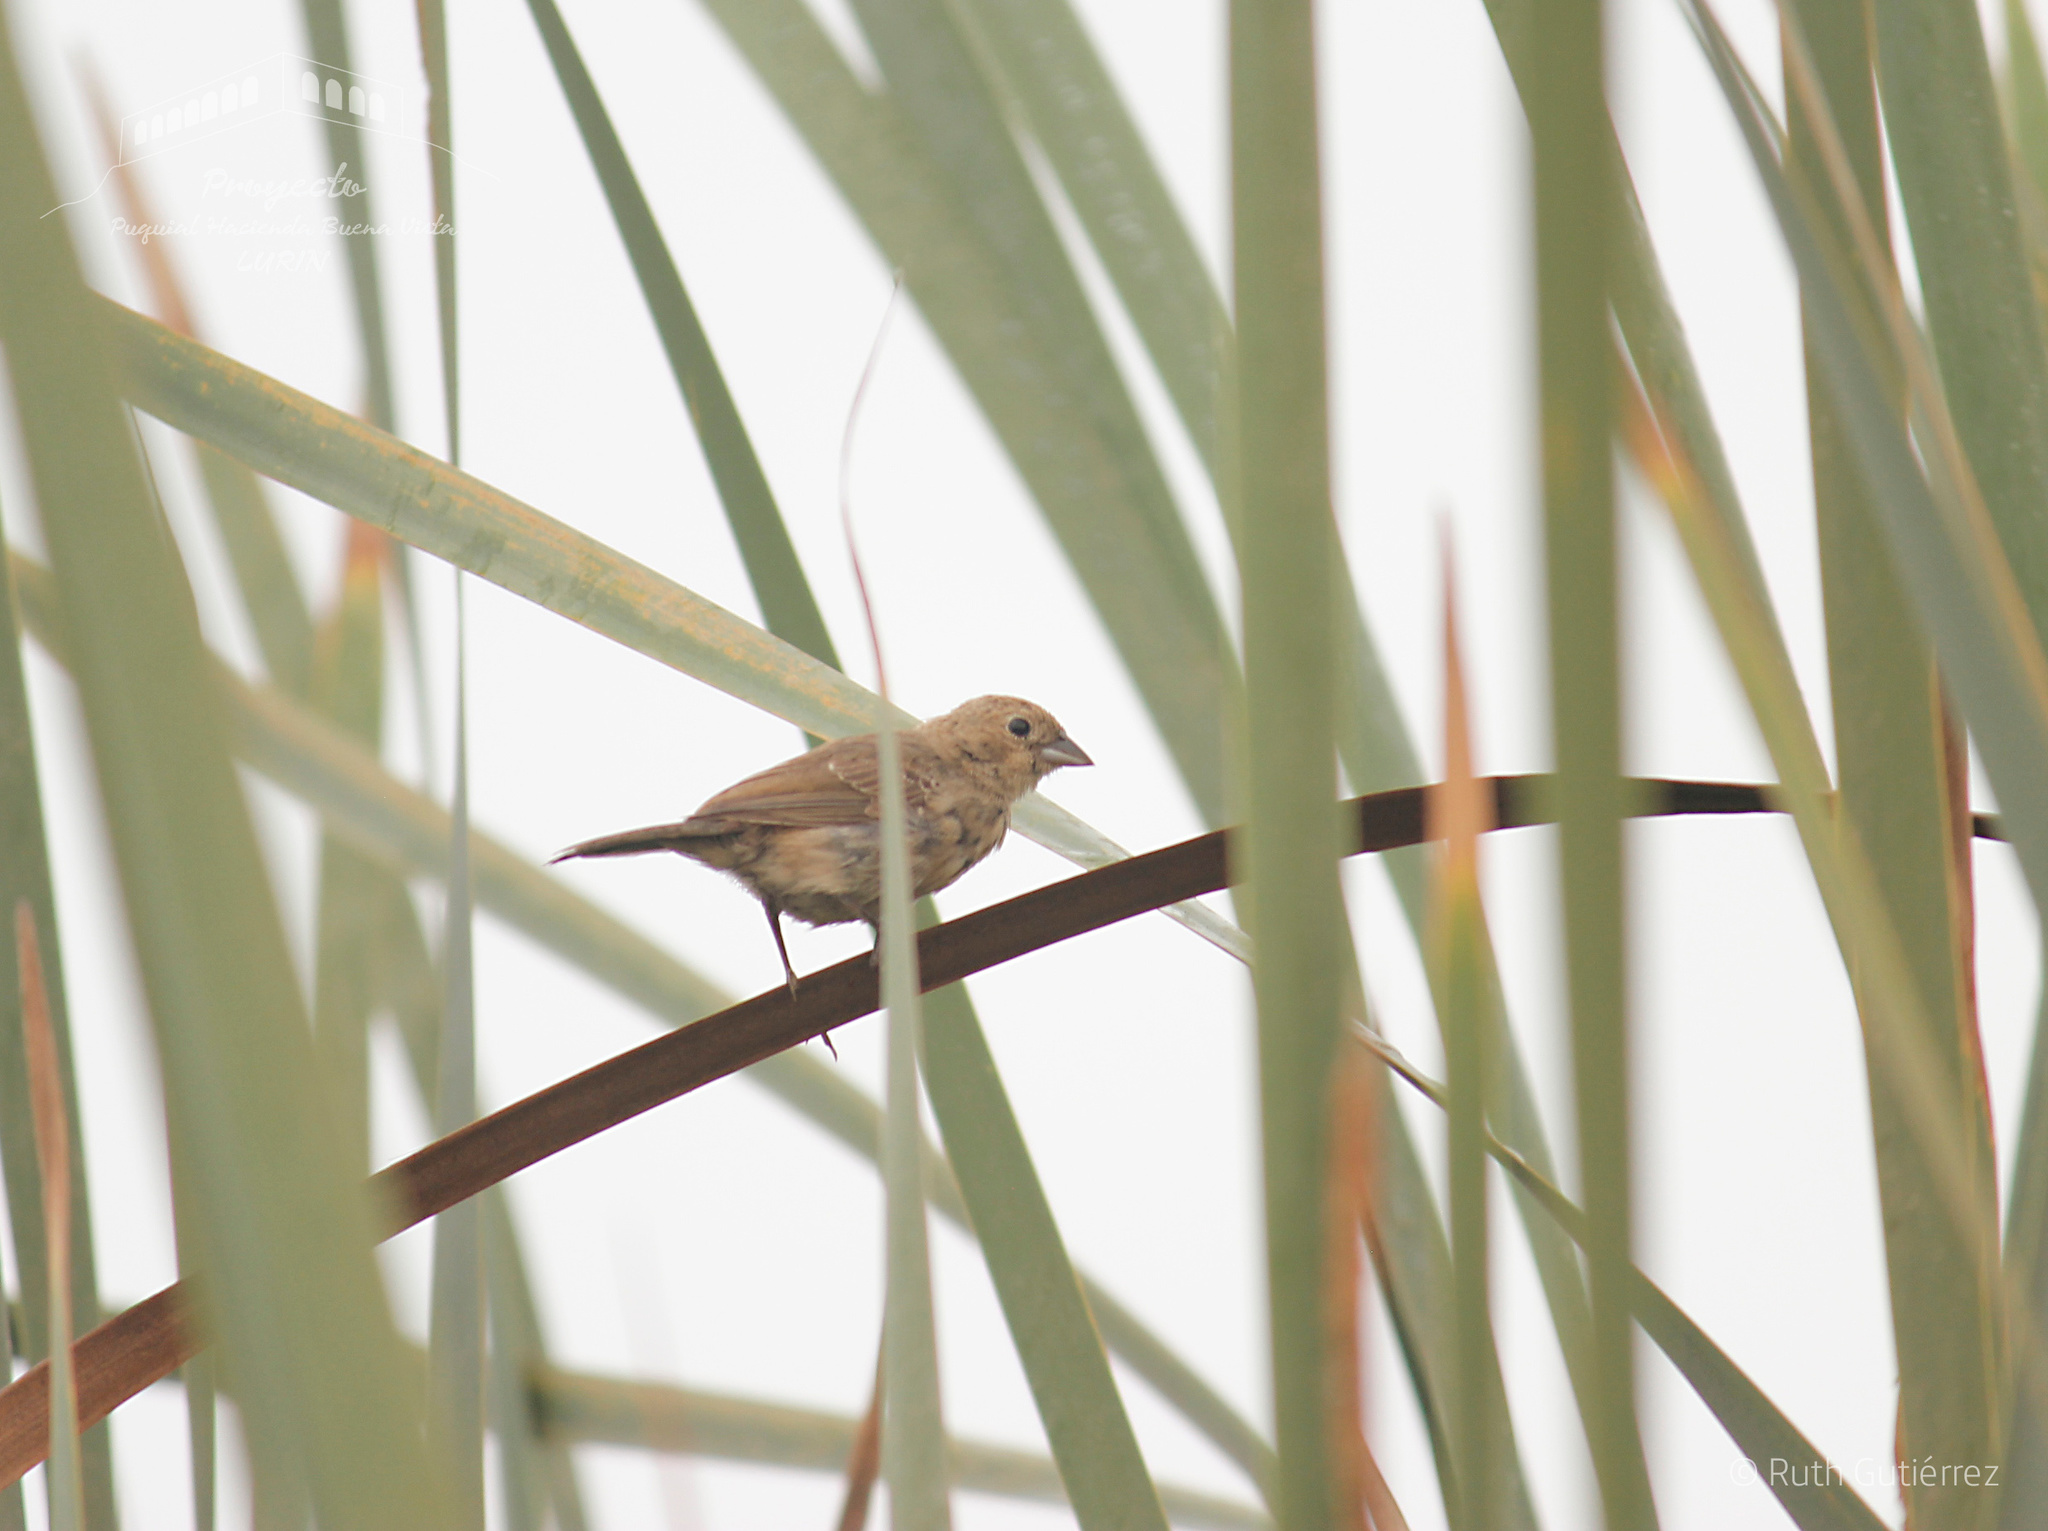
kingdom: Animalia
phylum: Chordata
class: Aves
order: Passeriformes
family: Thraupidae
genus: Volatinia
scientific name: Volatinia jacarina
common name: Blue-black grassquit
